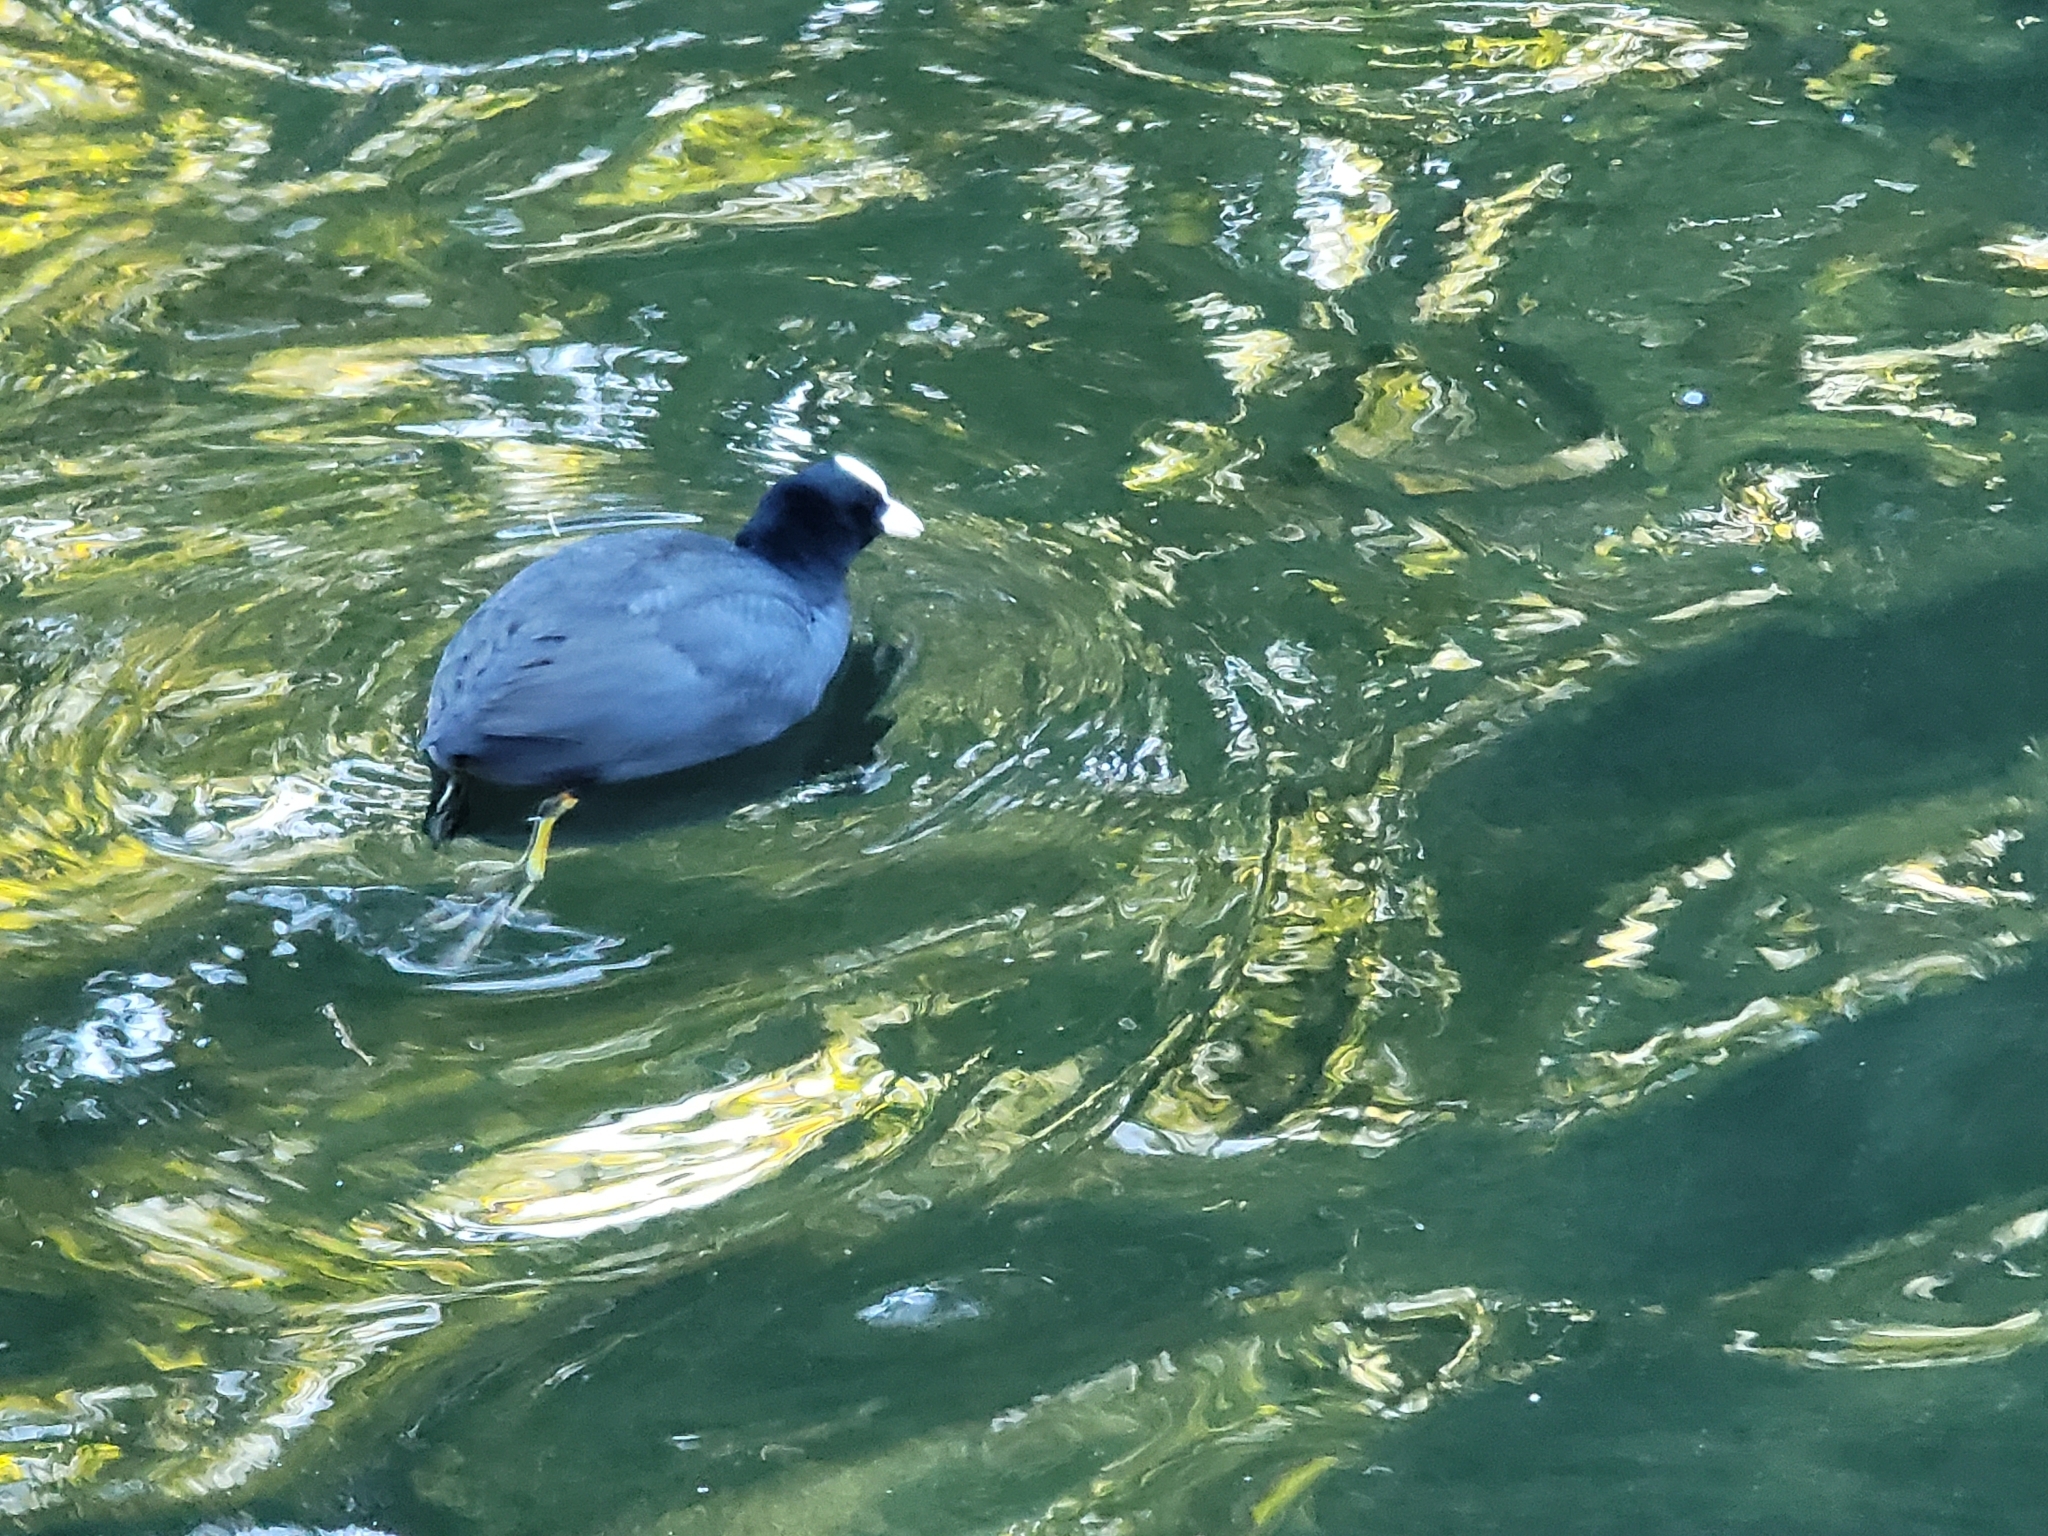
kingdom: Animalia
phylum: Chordata
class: Aves
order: Gruiformes
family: Rallidae
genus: Fulica
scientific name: Fulica atra
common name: Eurasian coot
